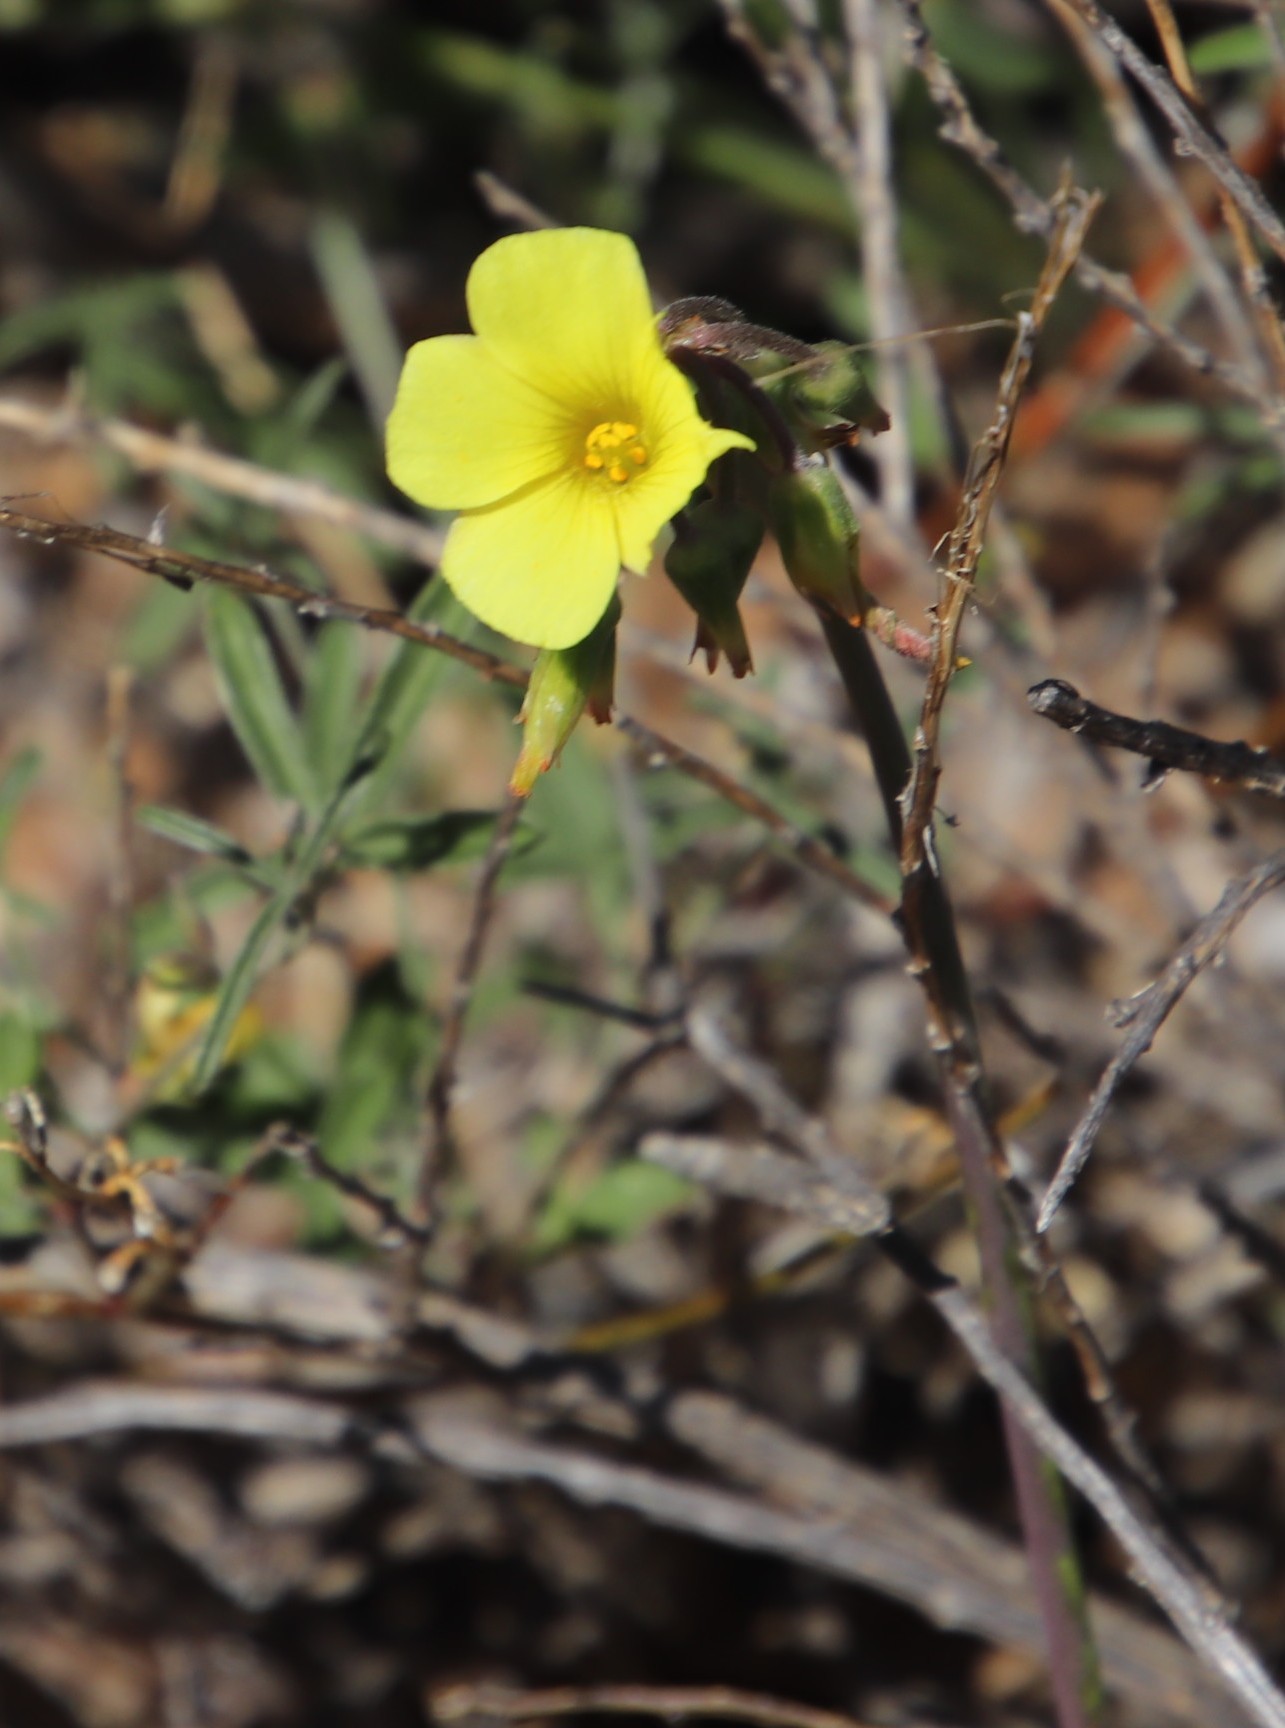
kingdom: Plantae
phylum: Tracheophyta
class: Magnoliopsida
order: Oxalidales
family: Oxalidaceae
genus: Oxalis
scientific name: Oxalis pes-caprae
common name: Bermuda-buttercup
